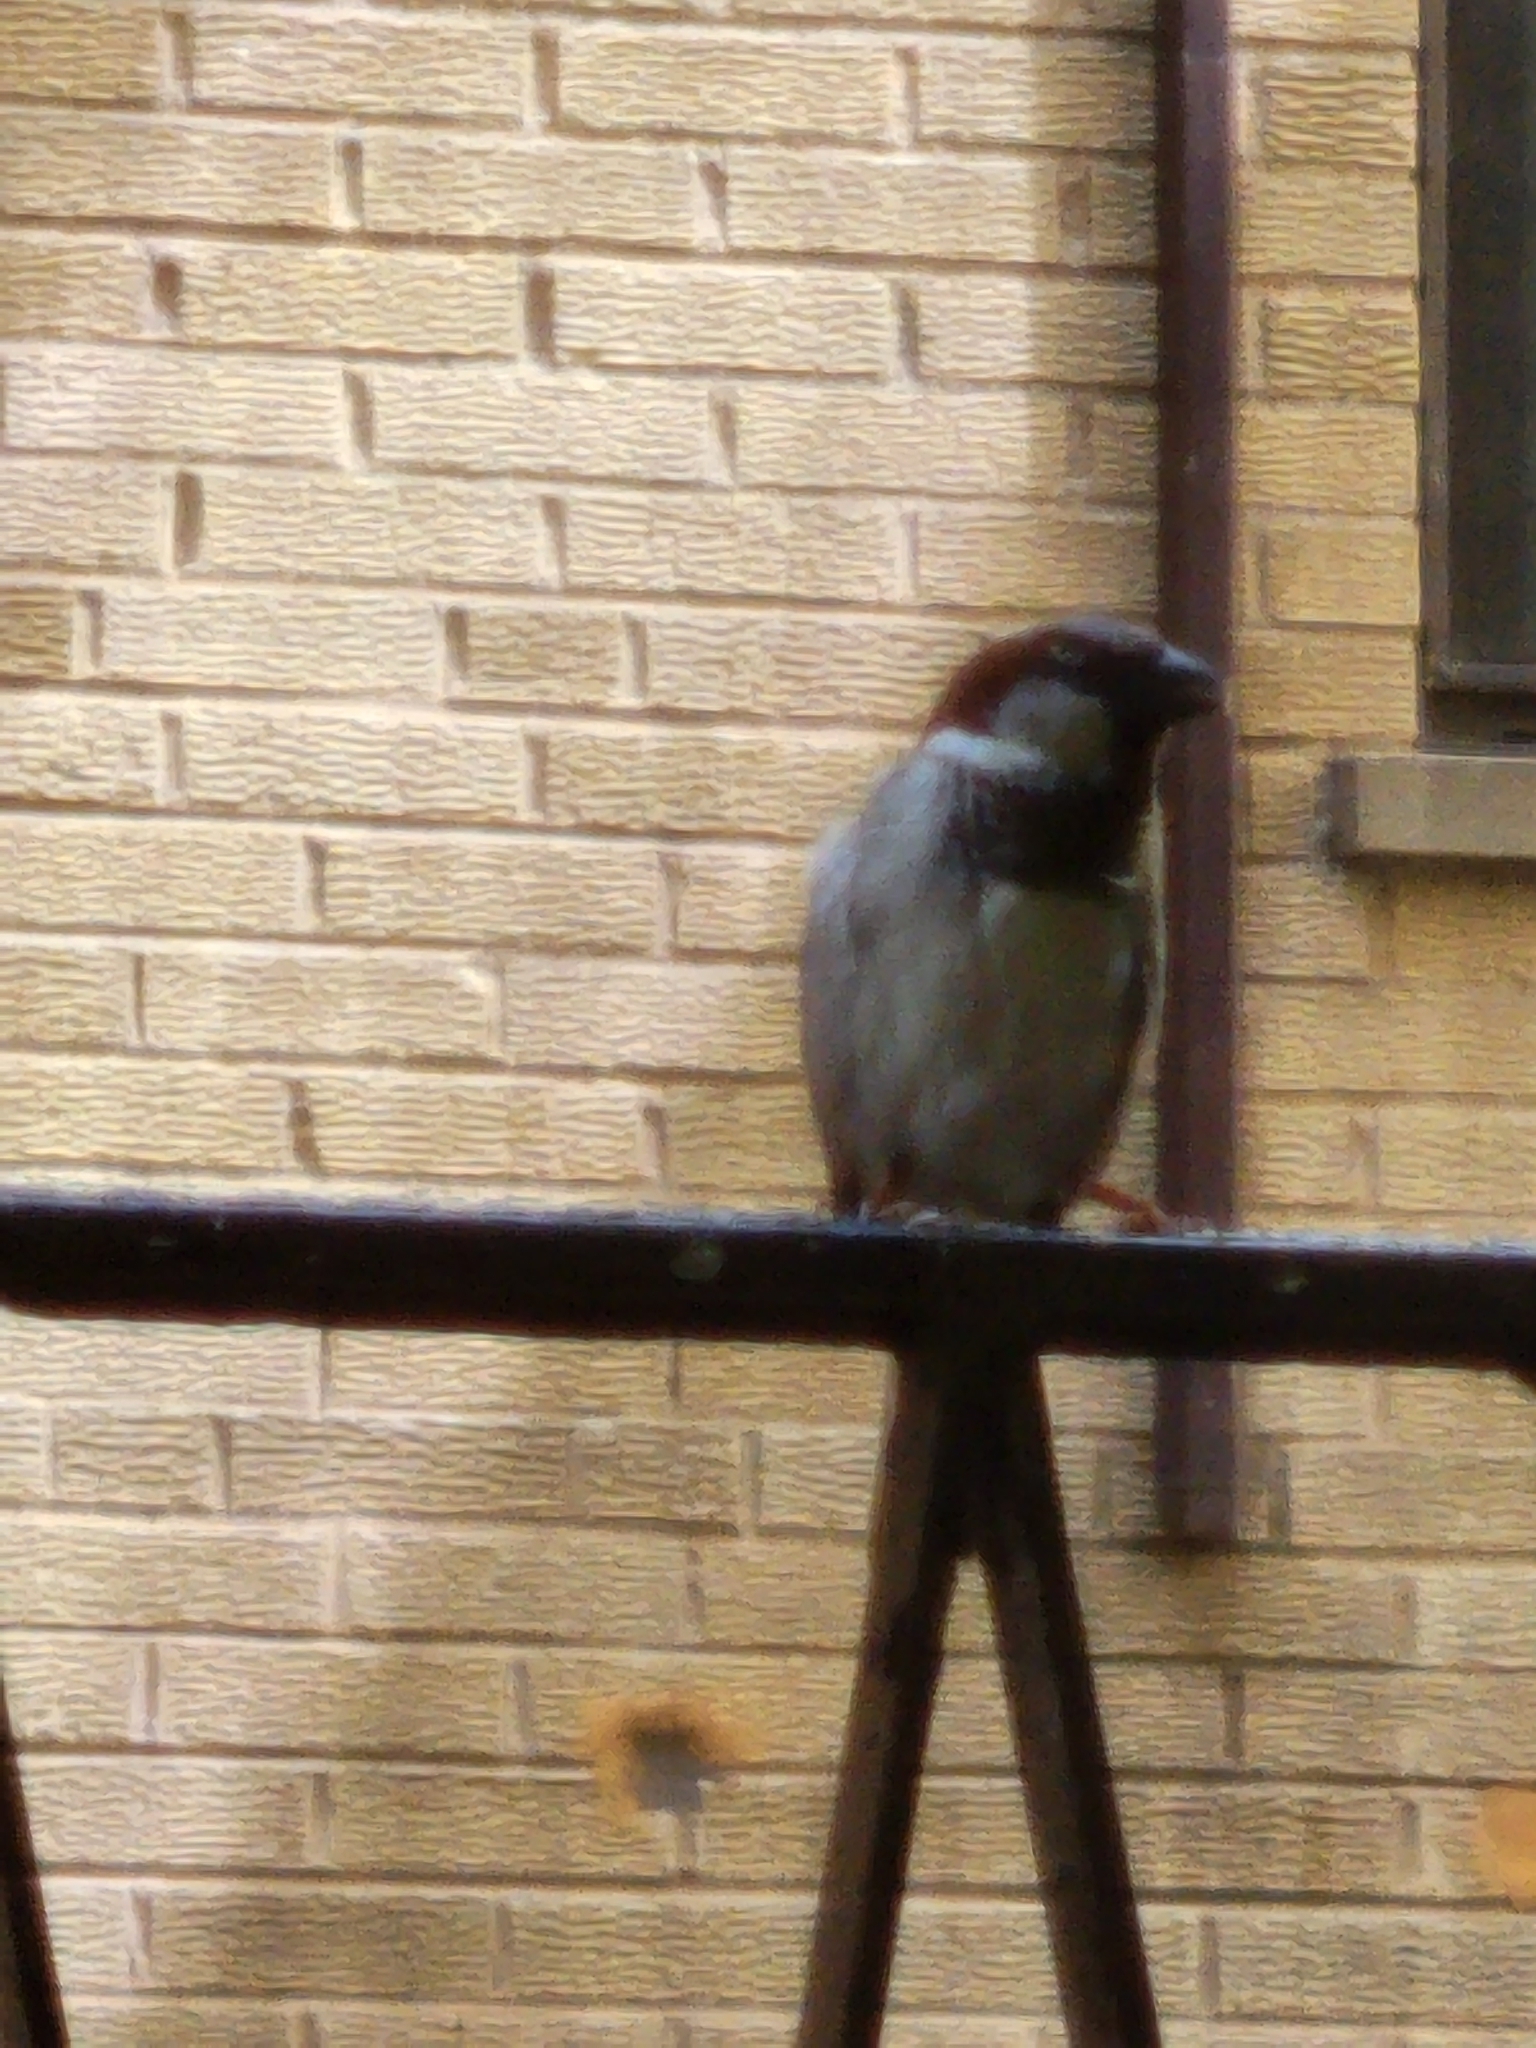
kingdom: Animalia
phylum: Chordata
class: Aves
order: Passeriformes
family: Passeridae
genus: Passer
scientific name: Passer domesticus
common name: House sparrow
